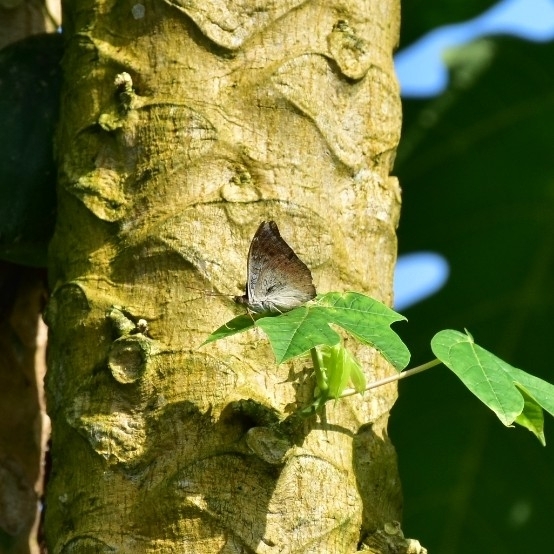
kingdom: Animalia
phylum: Arthropoda
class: Insecta
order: Lepidoptera
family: Nymphalidae
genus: Euthalia
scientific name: Euthalia aconthea
